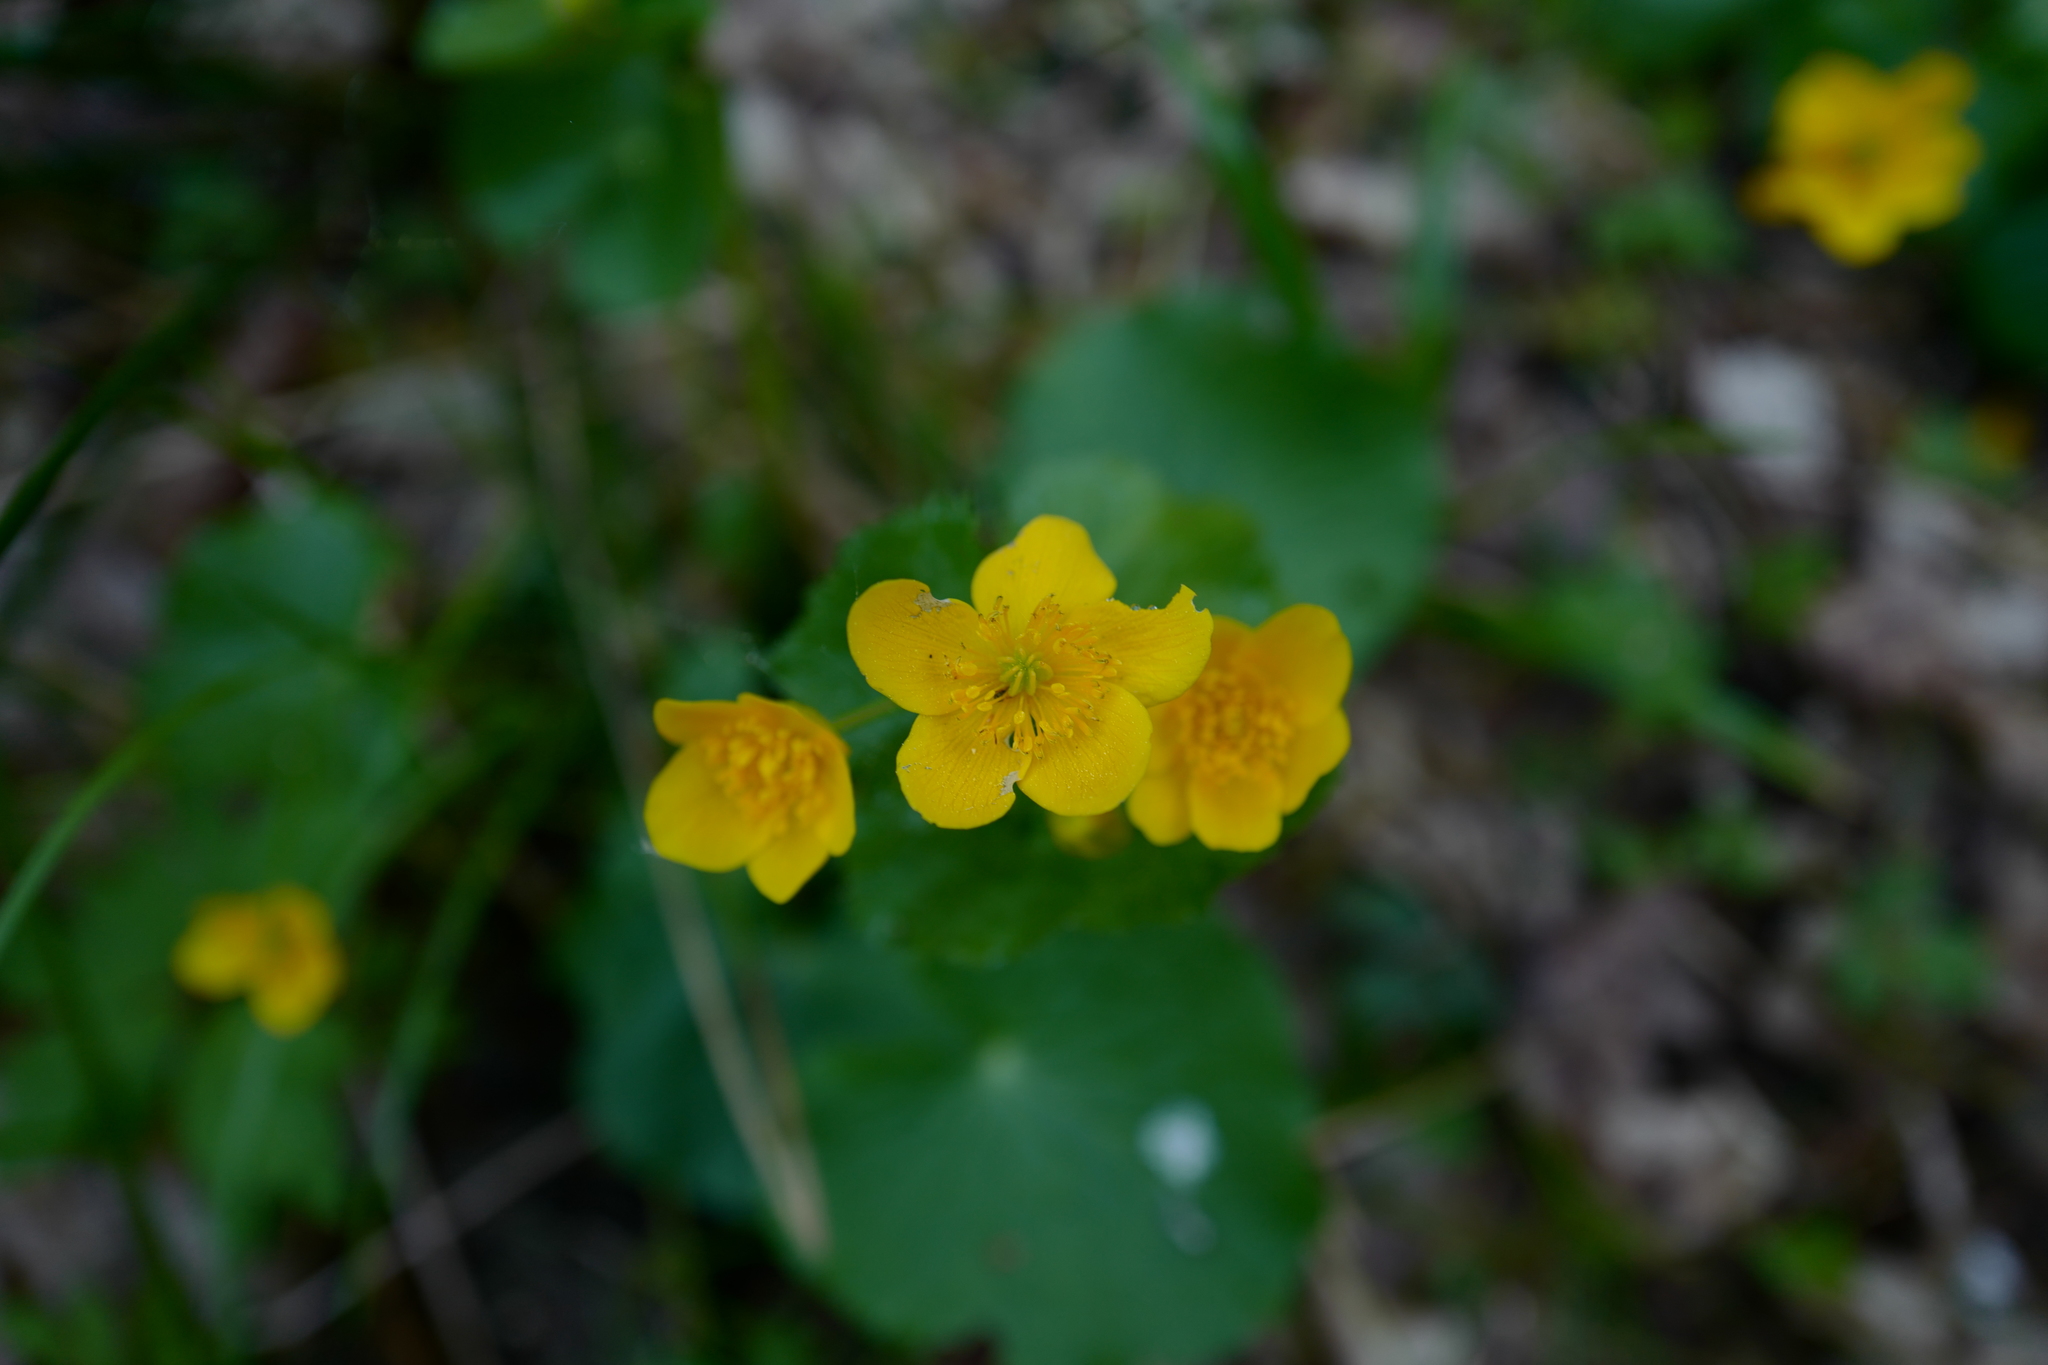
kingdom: Plantae
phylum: Tracheophyta
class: Magnoliopsida
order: Ranunculales
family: Ranunculaceae
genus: Caltha
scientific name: Caltha palustris
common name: Marsh marigold
